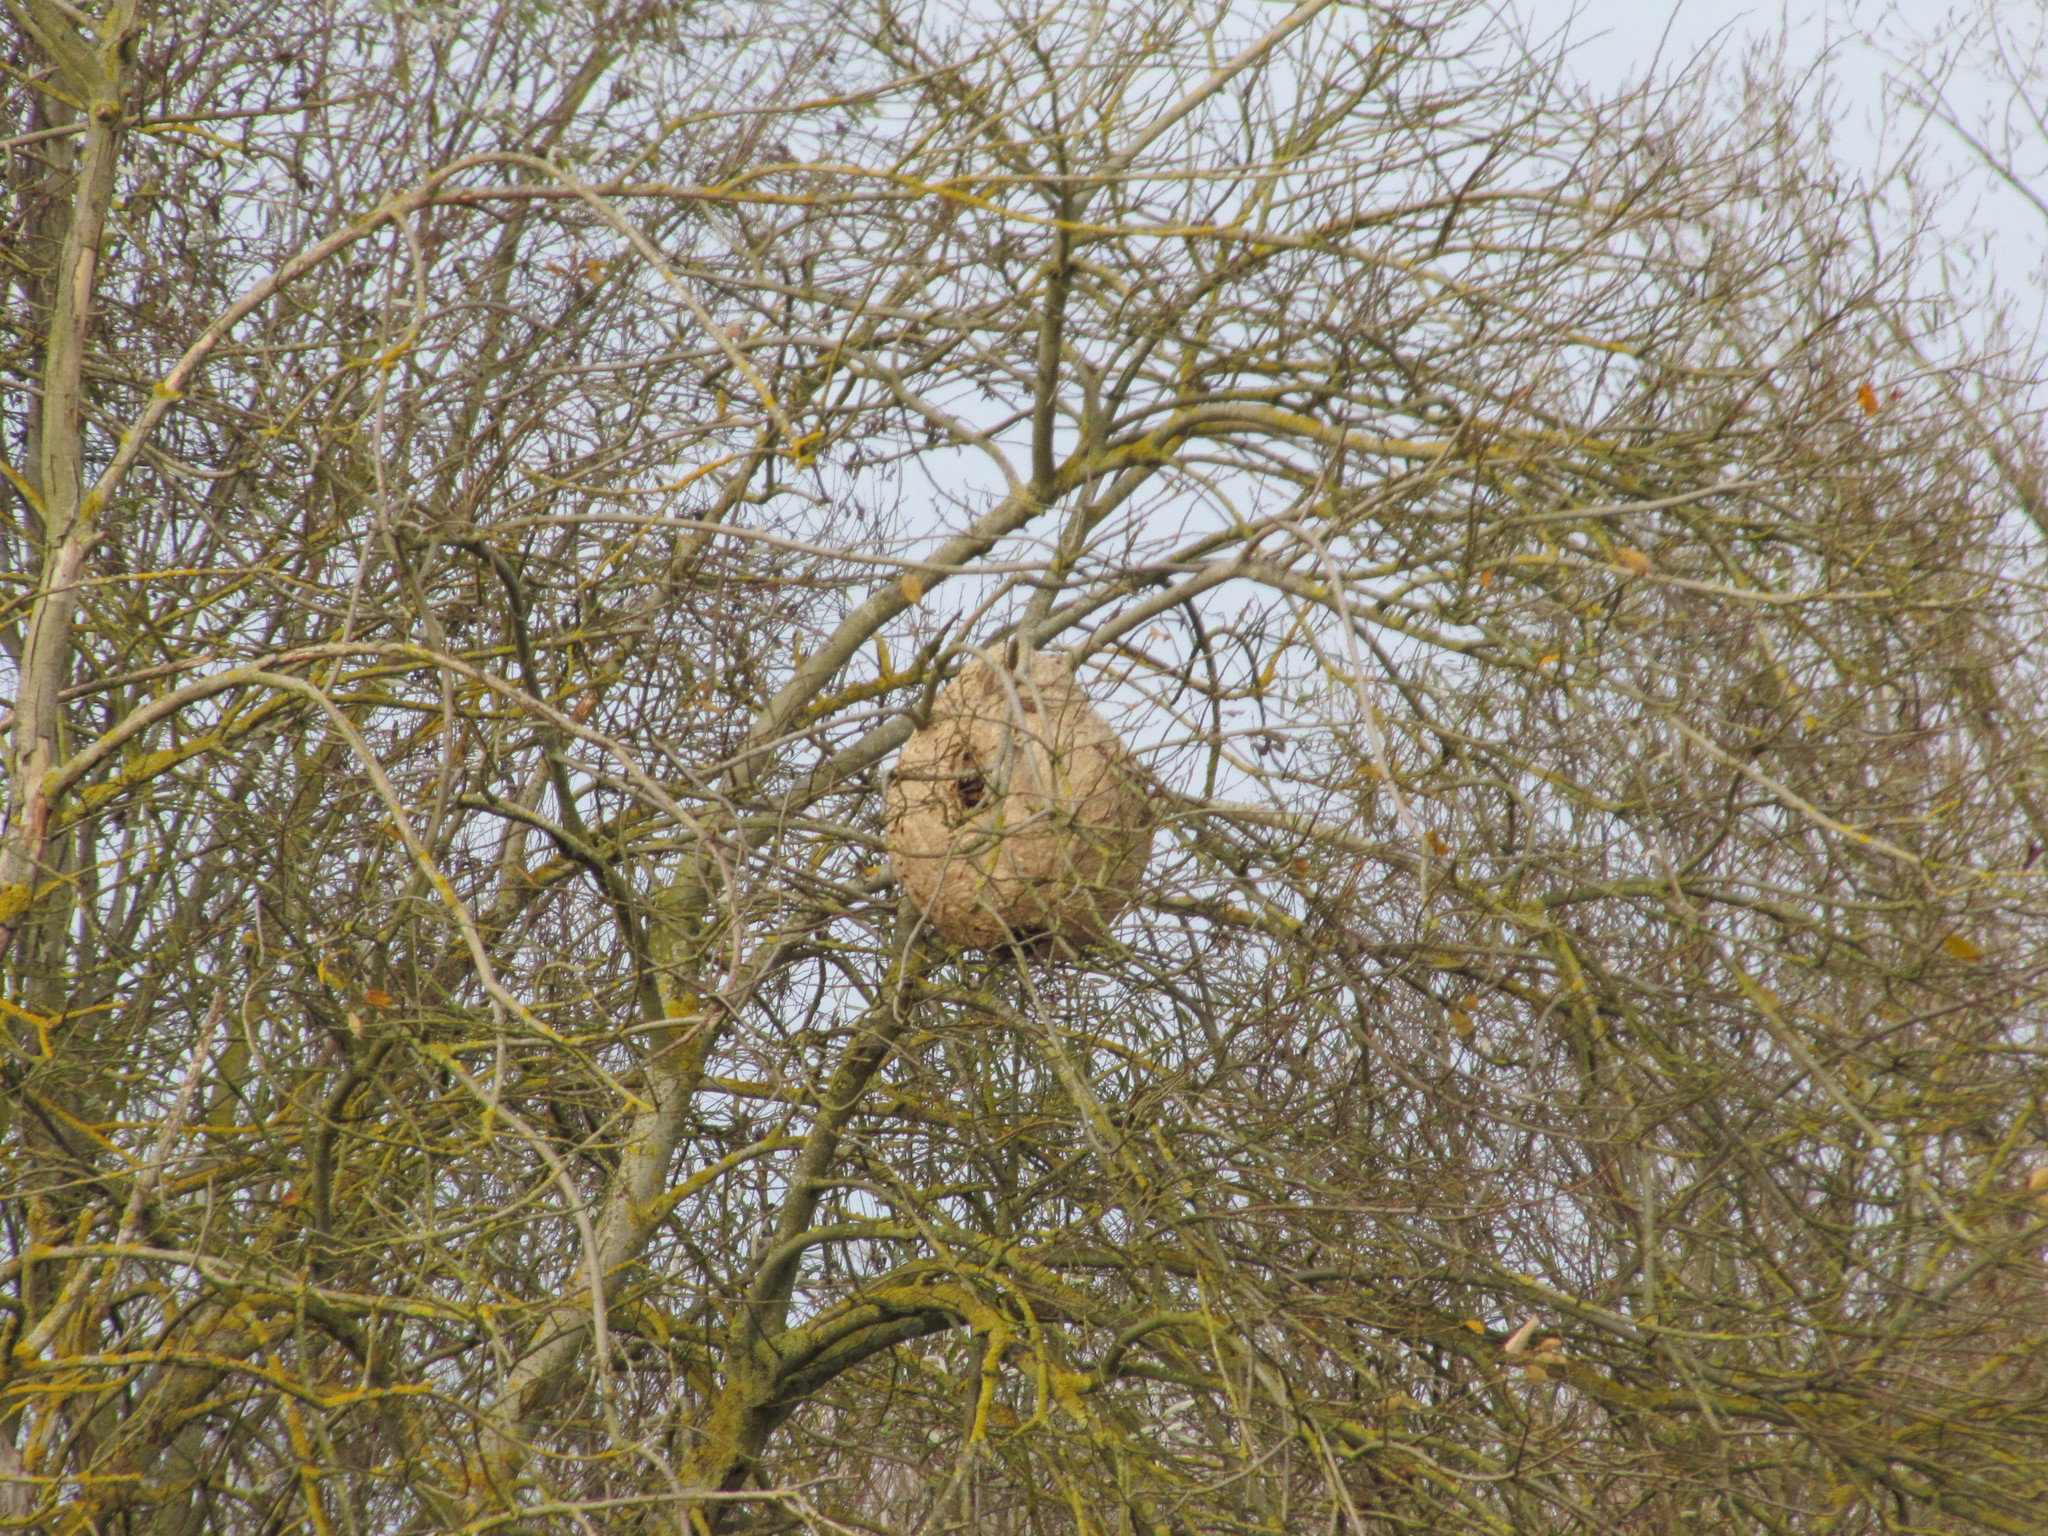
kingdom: Animalia
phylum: Arthropoda
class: Insecta
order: Hymenoptera
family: Vespidae
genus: Vespa
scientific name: Vespa velutina
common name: Asian hornet
